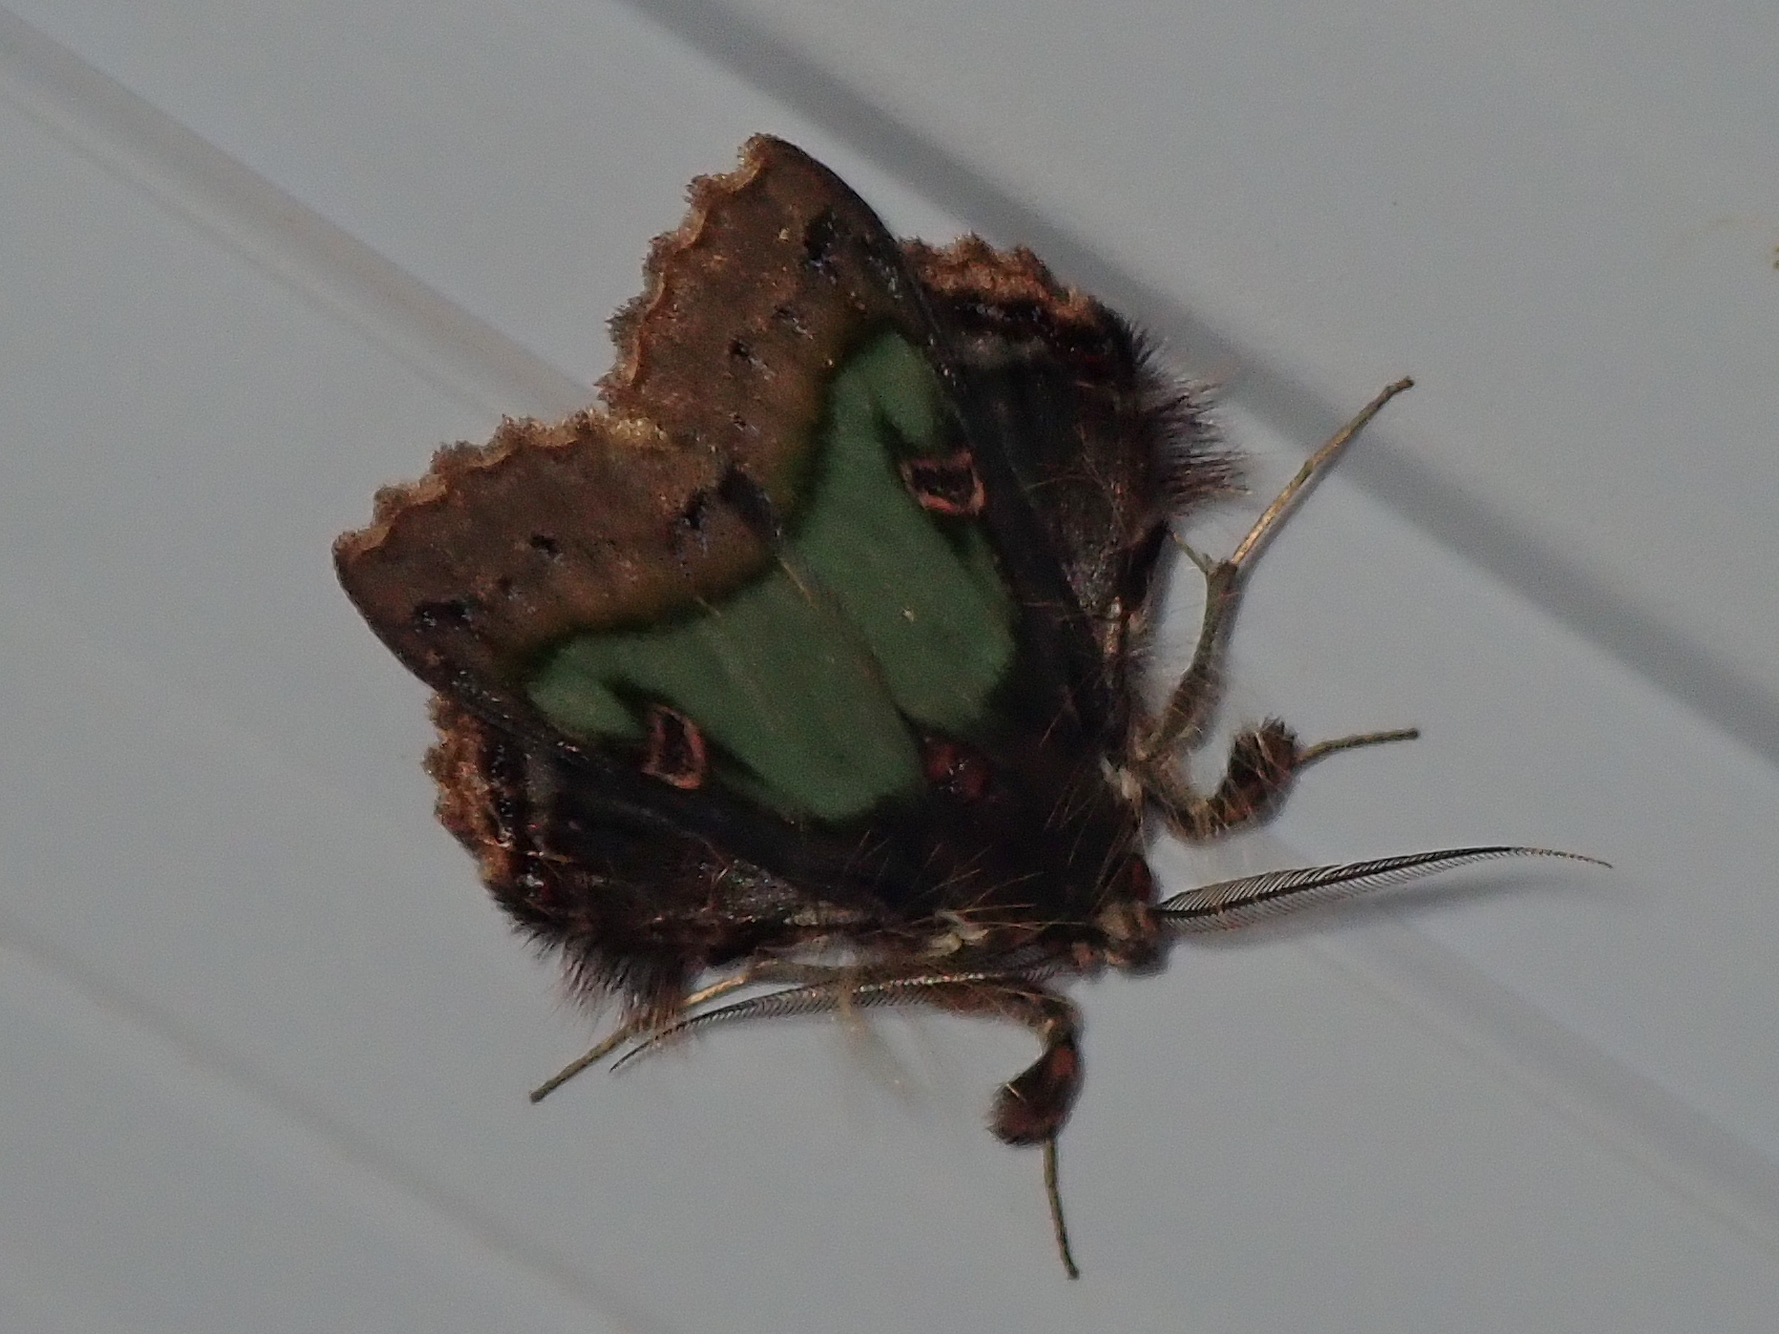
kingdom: Animalia
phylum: Arthropoda
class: Insecta
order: Lepidoptera
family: Erebidae
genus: Ceroctena
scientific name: Ceroctena amynta
